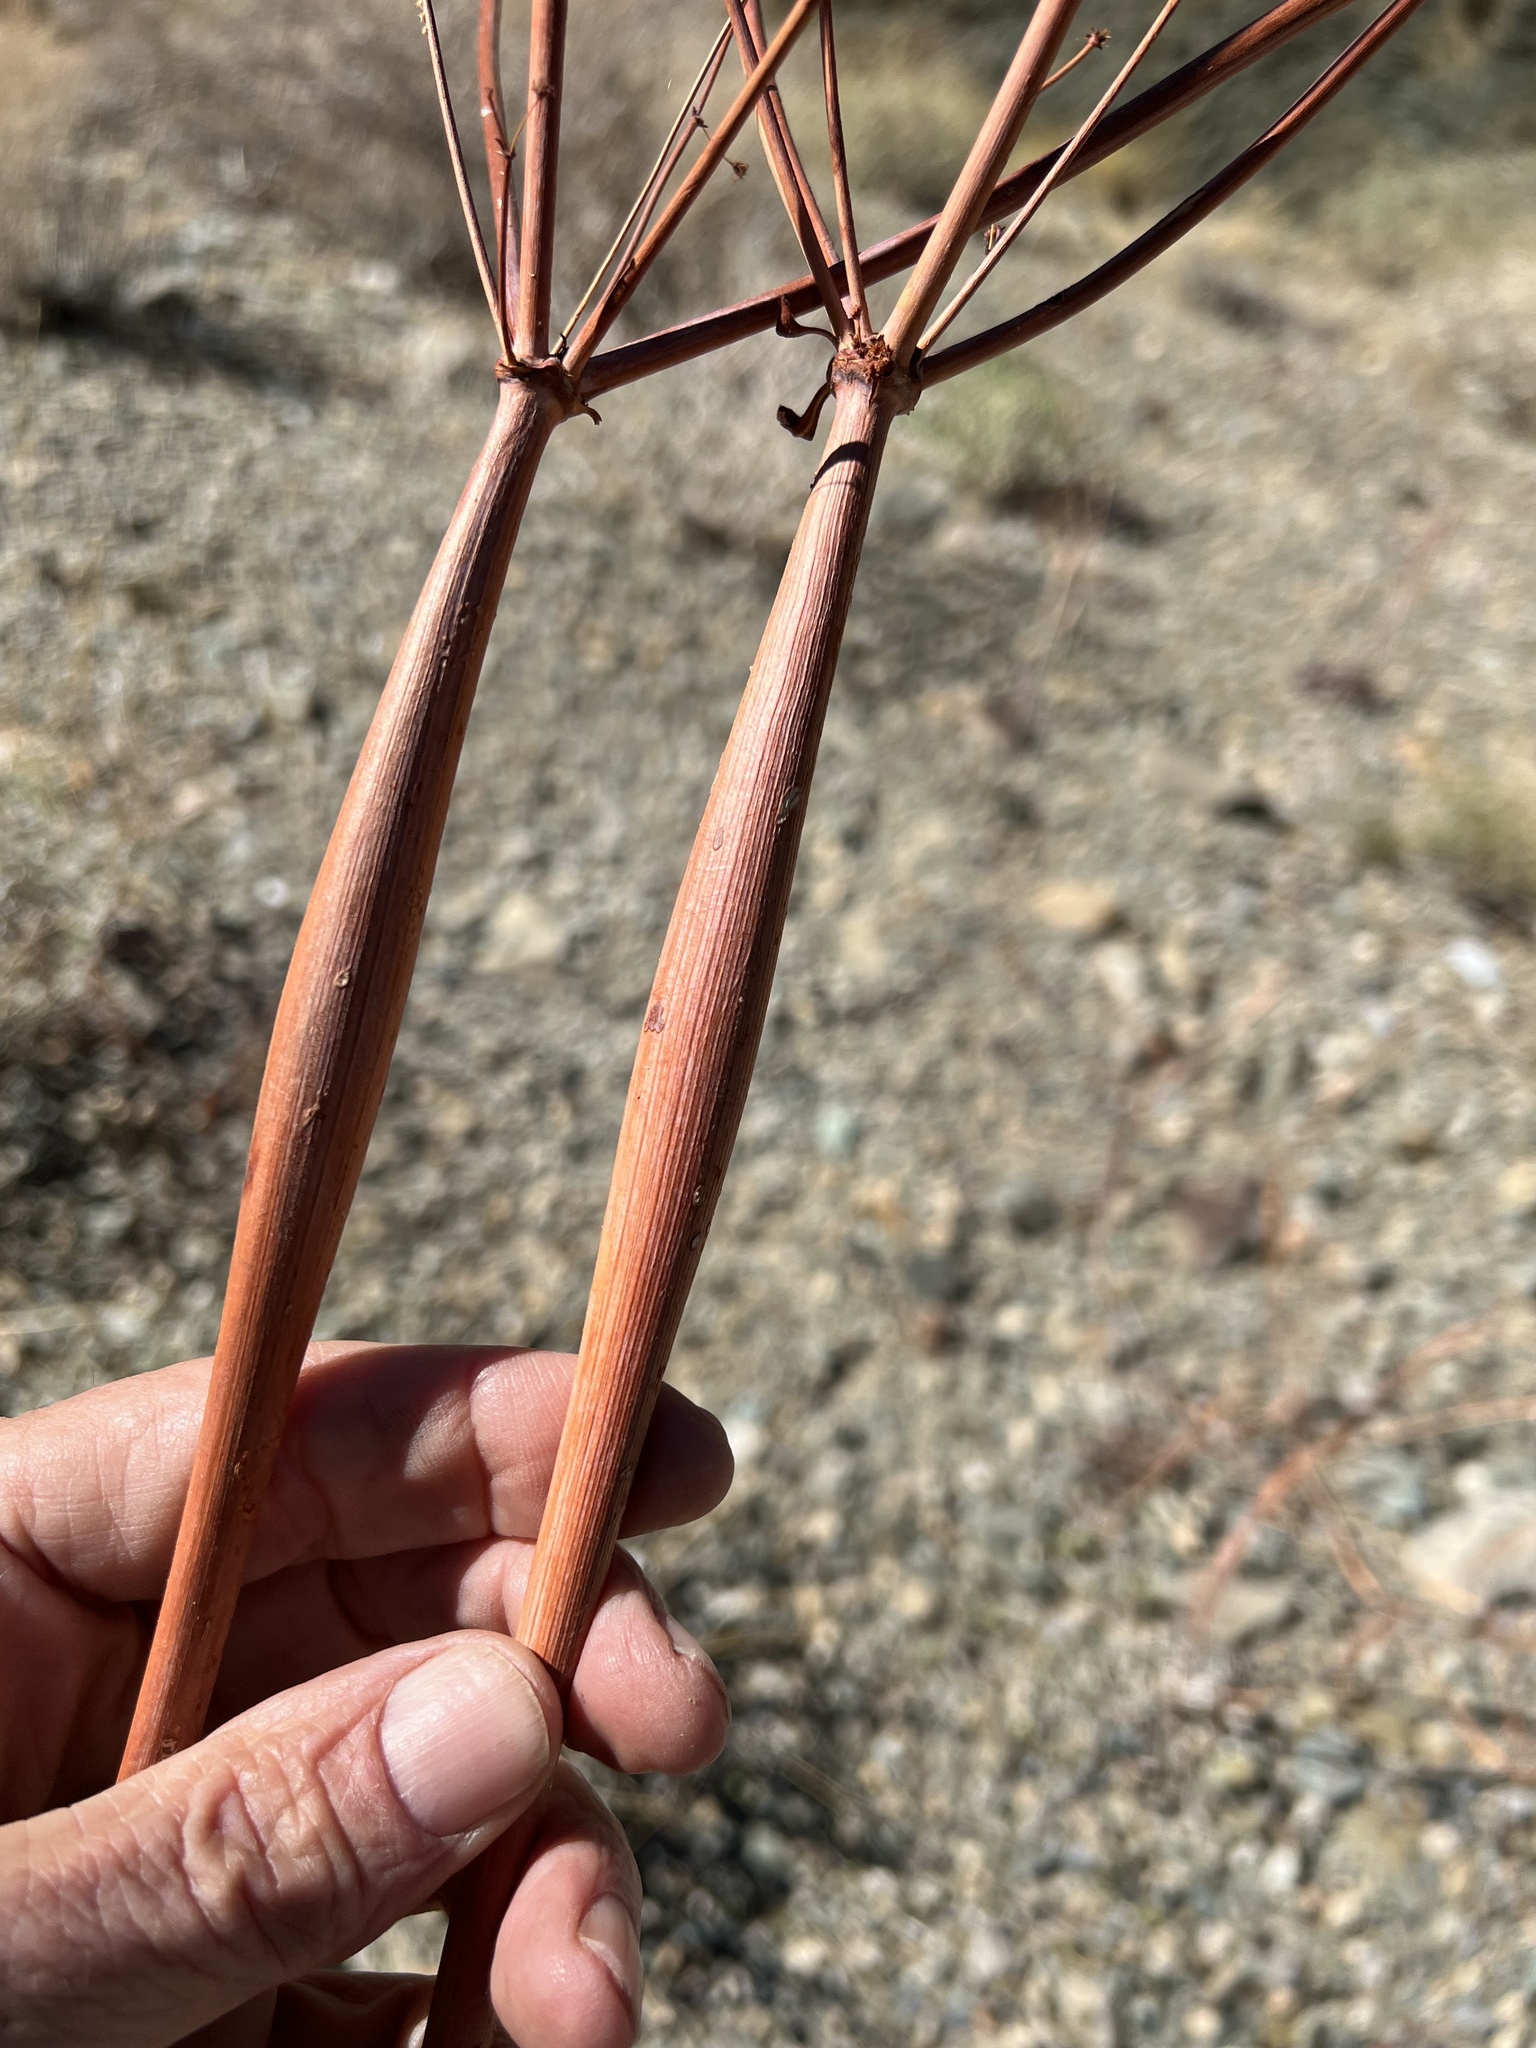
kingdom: Plantae
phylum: Tracheophyta
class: Magnoliopsida
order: Caryophyllales
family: Polygonaceae
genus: Eriogonum
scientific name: Eriogonum inflatum
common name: Desert trumpet
